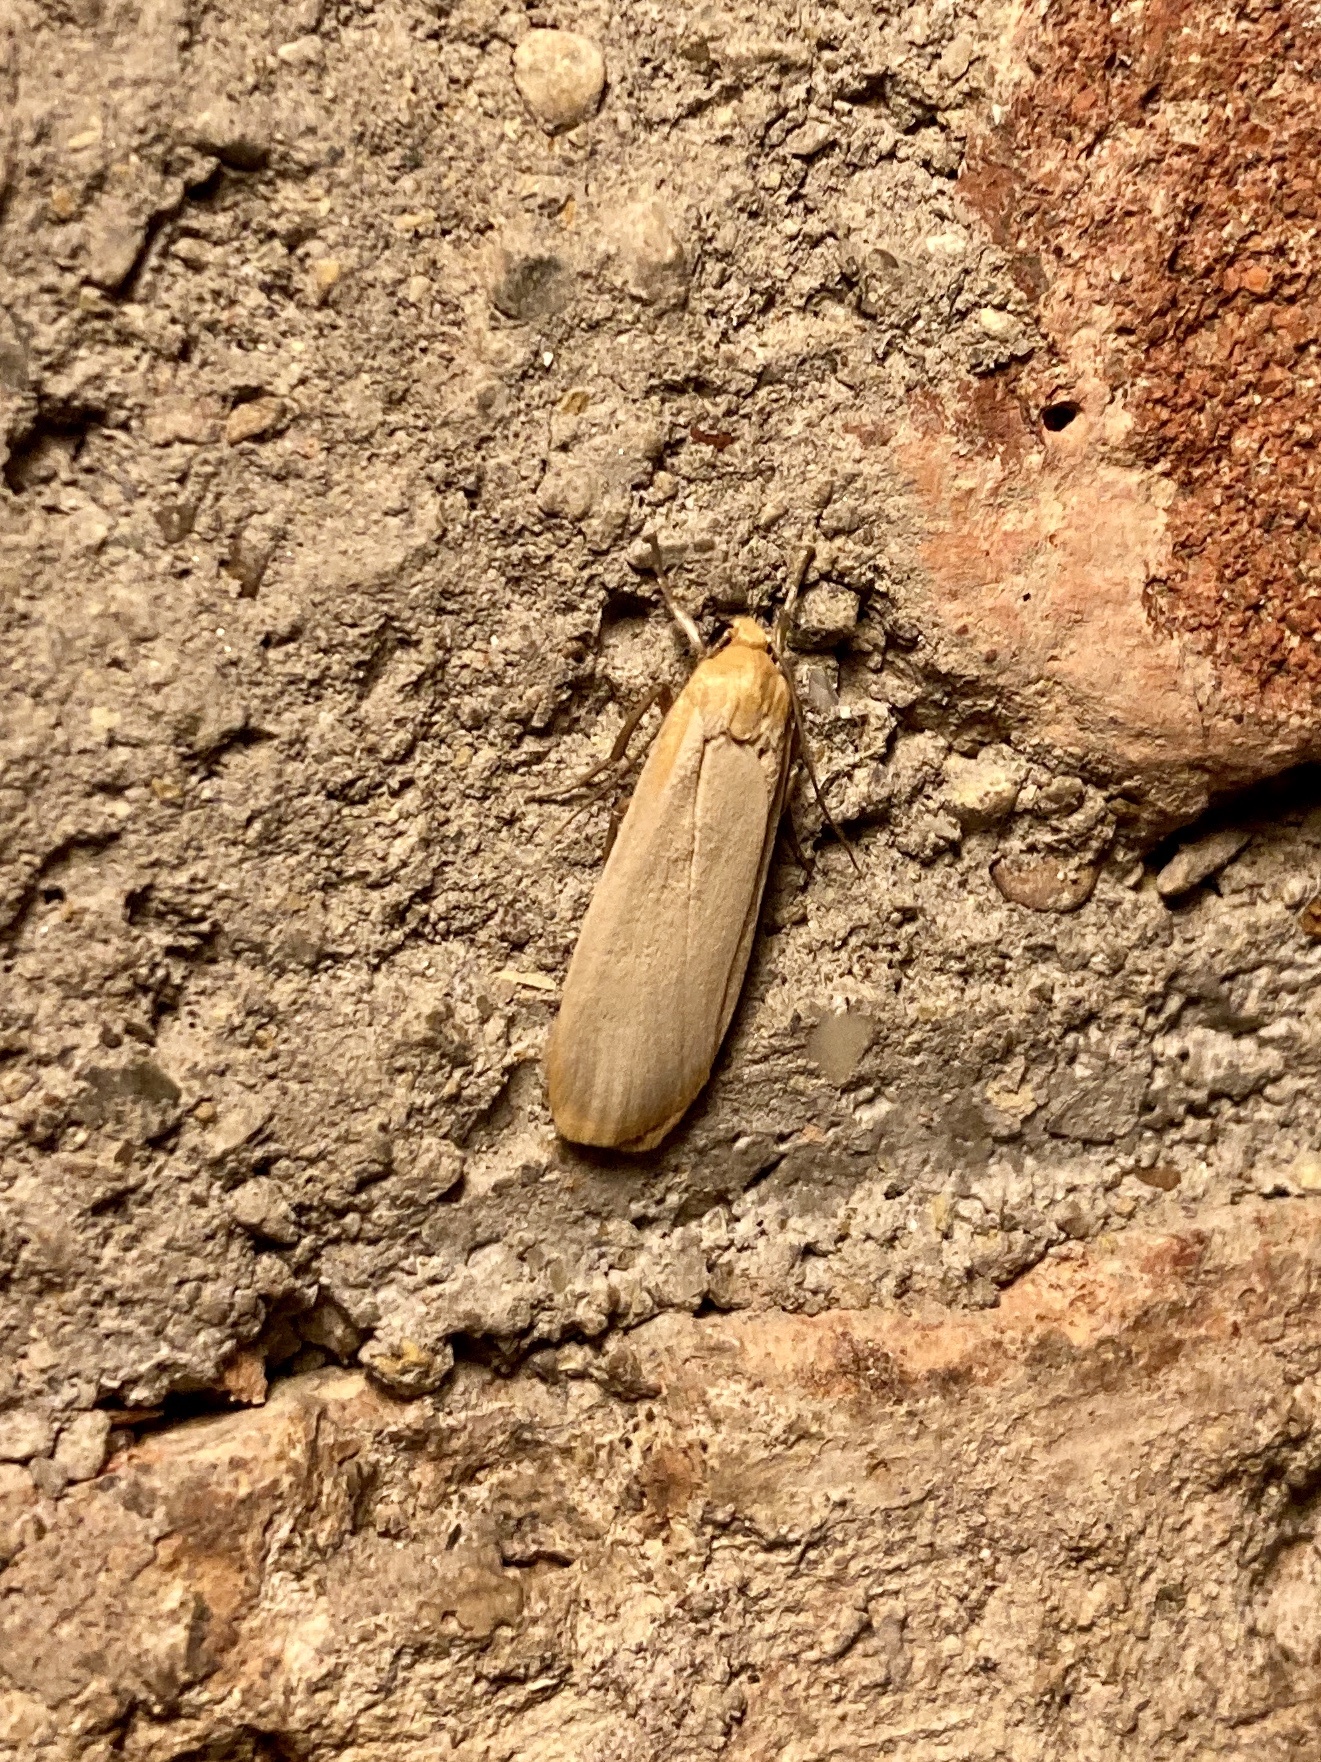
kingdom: Animalia
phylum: Arthropoda
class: Insecta
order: Lepidoptera
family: Erebidae
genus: Katha
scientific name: Katha depressa
